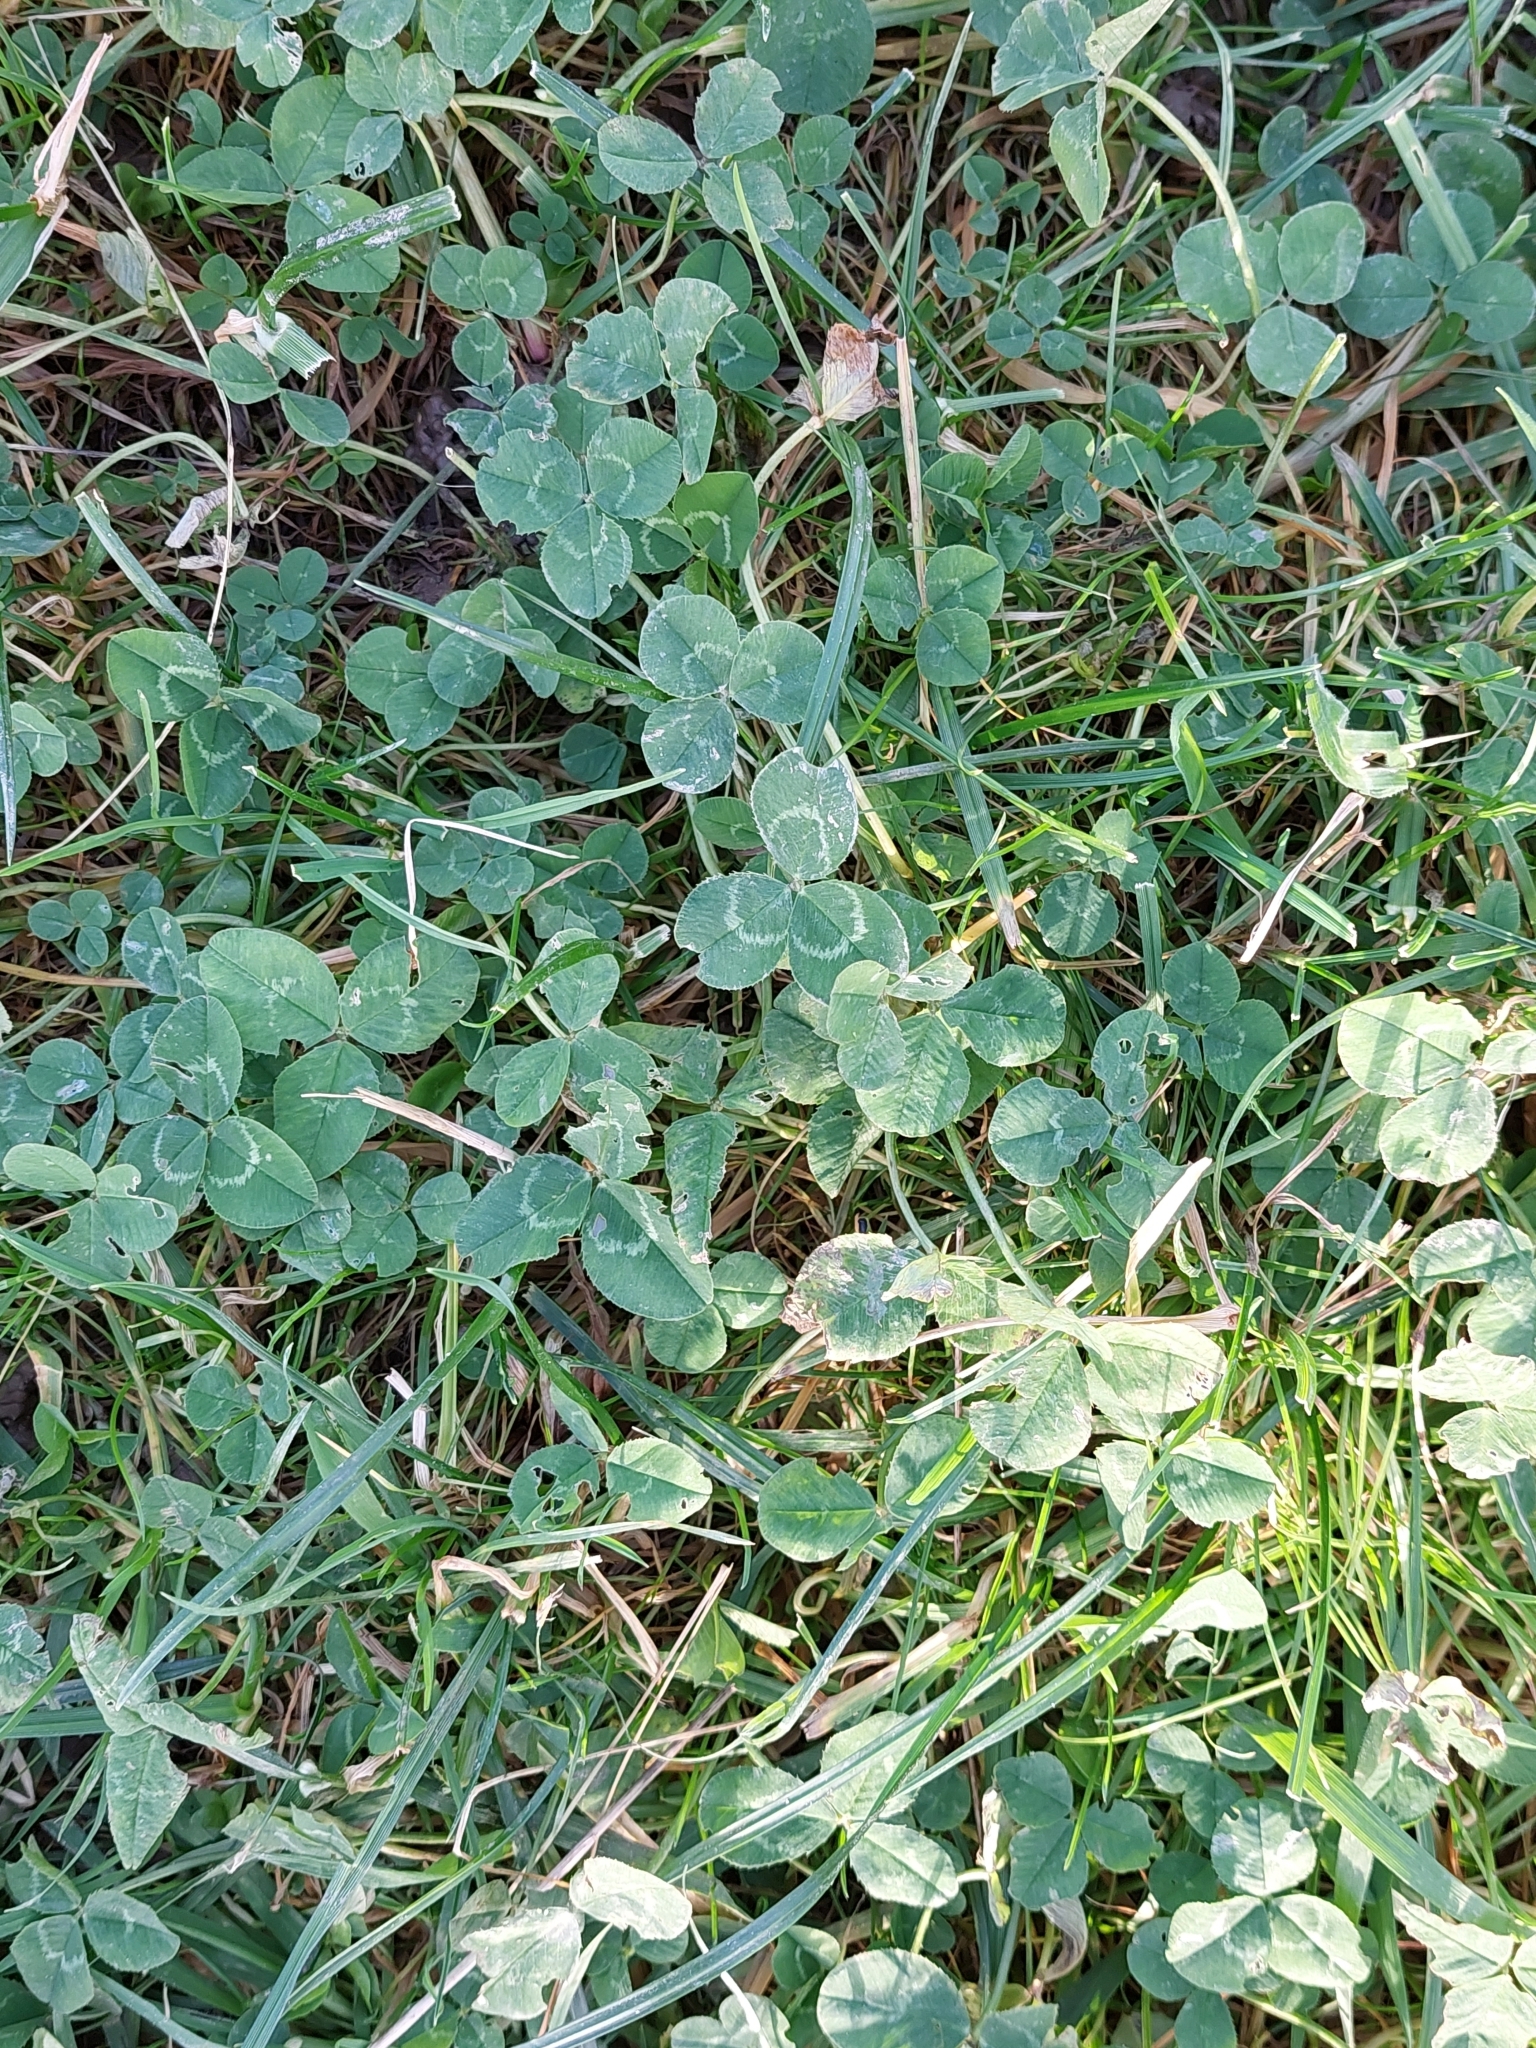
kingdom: Plantae
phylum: Tracheophyta
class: Magnoliopsida
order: Fabales
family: Fabaceae
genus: Trifolium
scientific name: Trifolium repens
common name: White clover
